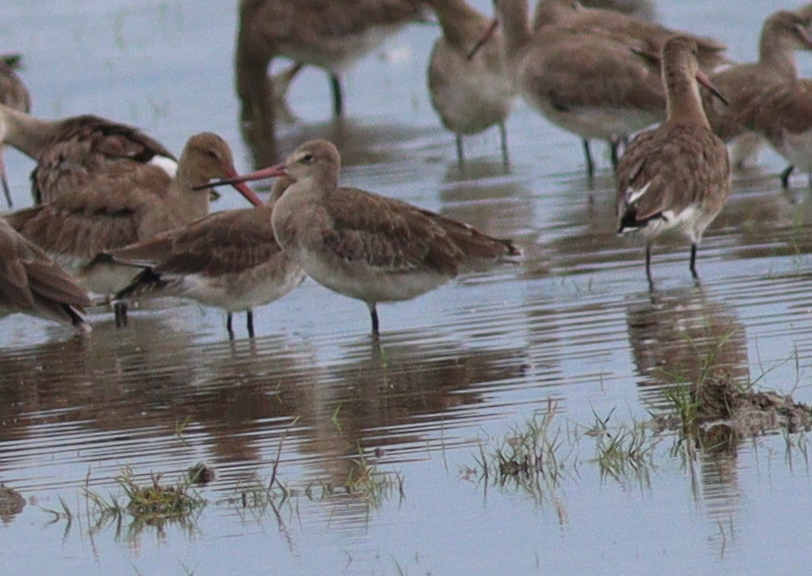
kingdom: Animalia
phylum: Chordata
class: Aves
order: Charadriiformes
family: Scolopacidae
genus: Limosa
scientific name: Limosa limosa
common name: Black-tailed godwit
